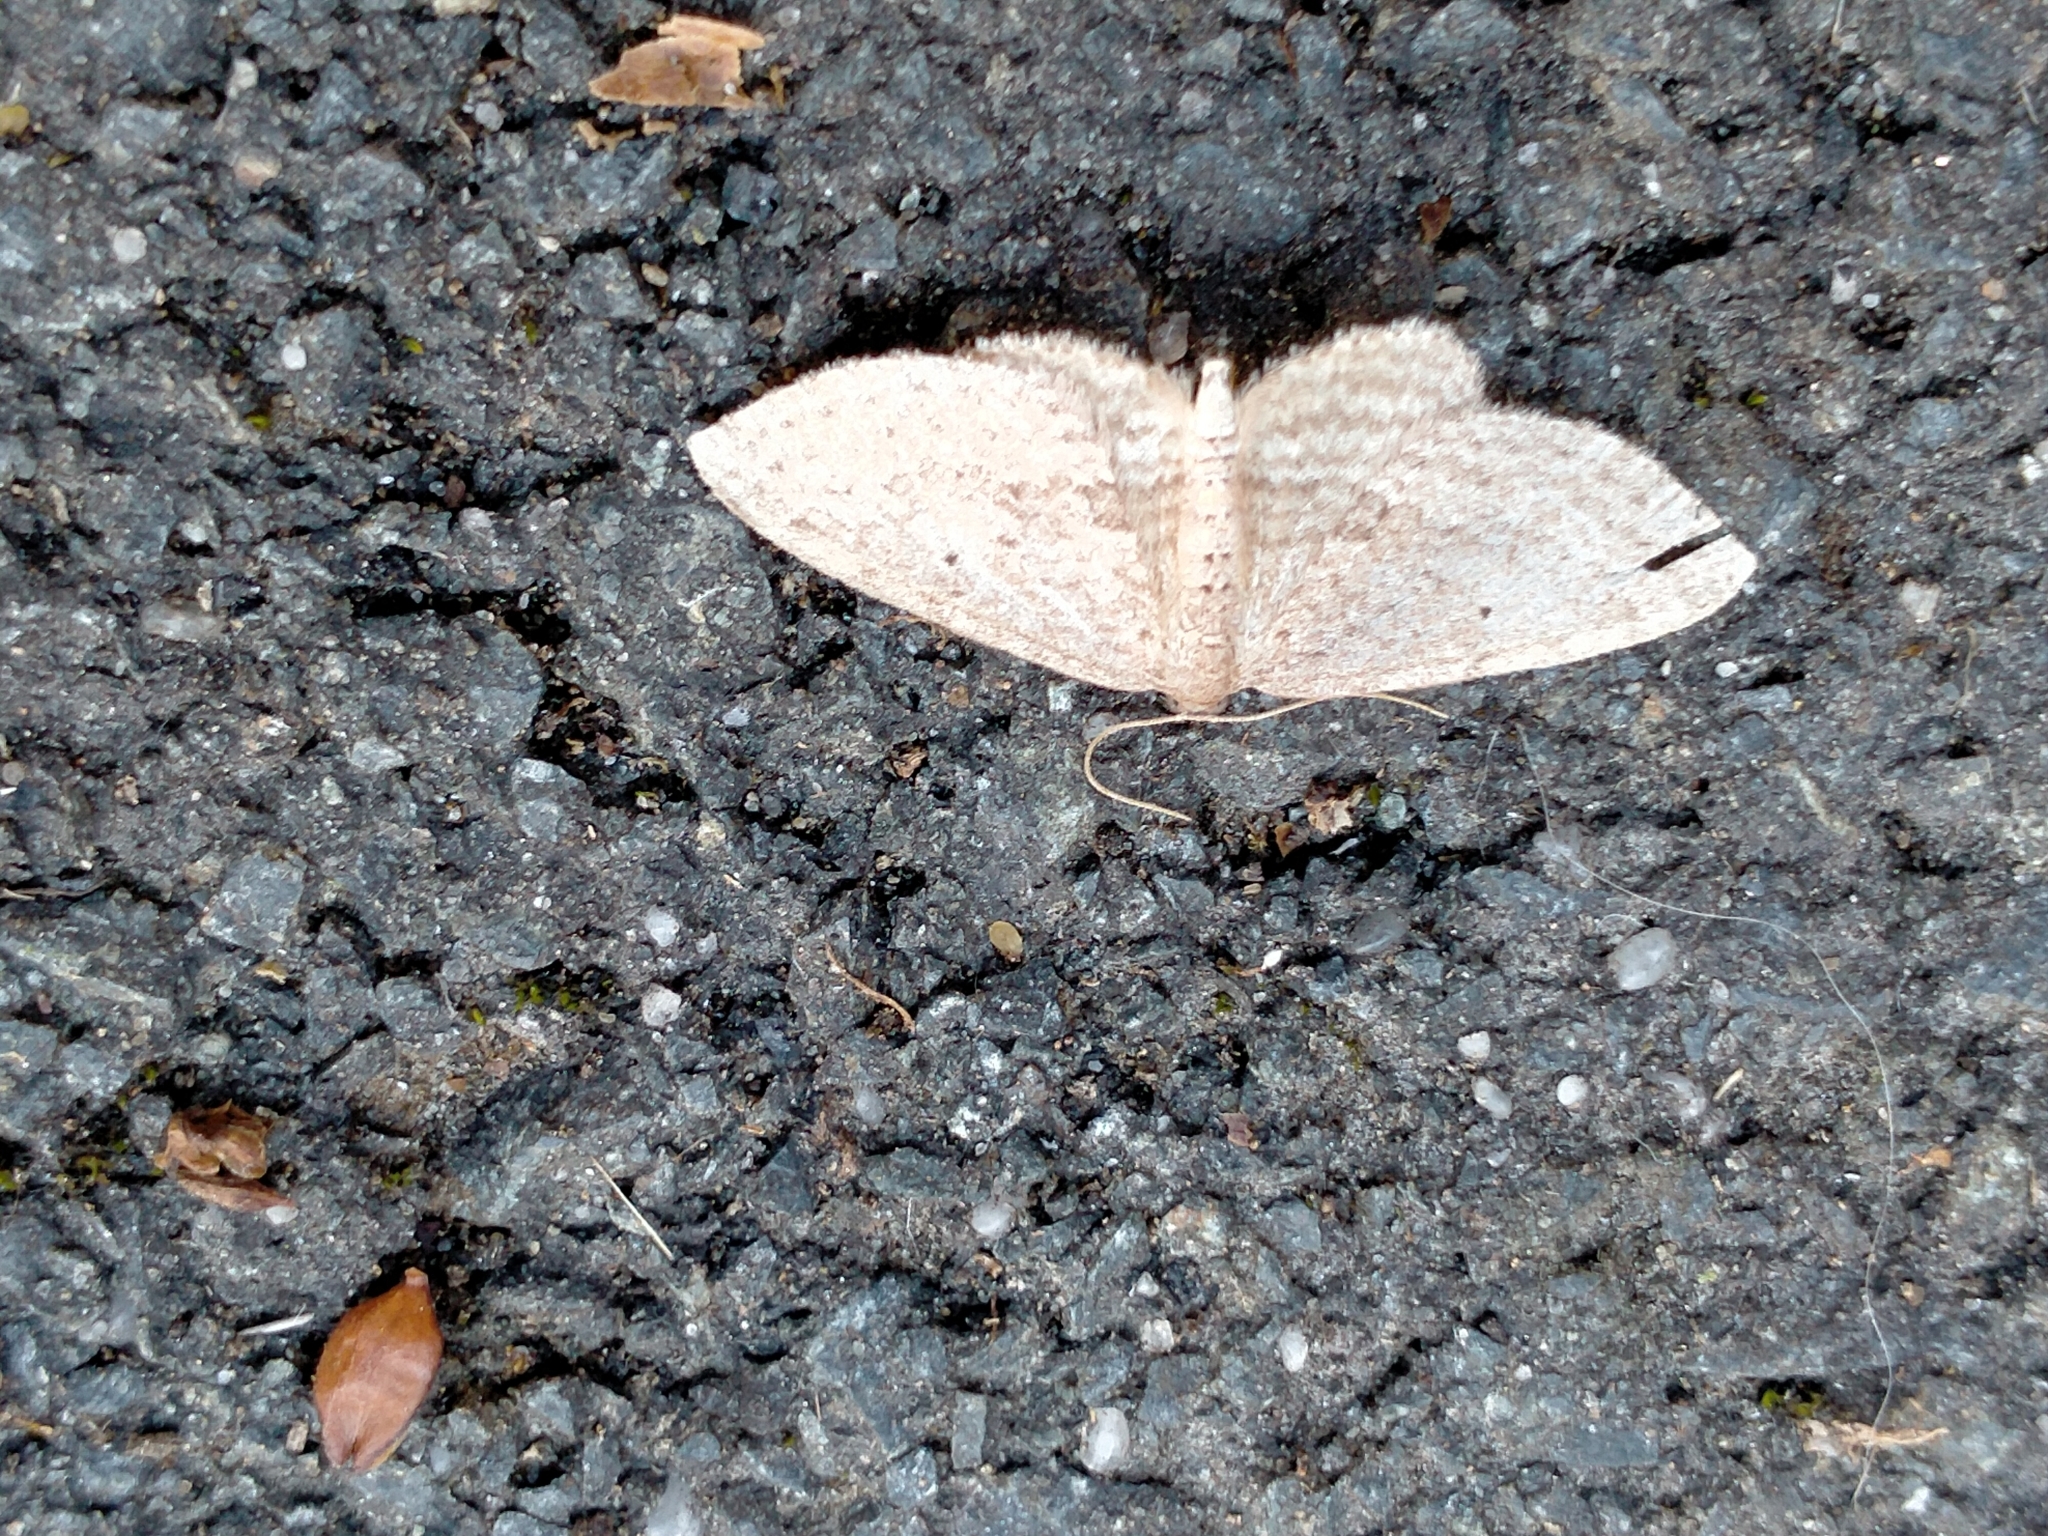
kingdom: Animalia
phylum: Arthropoda
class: Insecta
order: Lepidoptera
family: Geometridae
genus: Poecilasthena
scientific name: Poecilasthena schistaria
